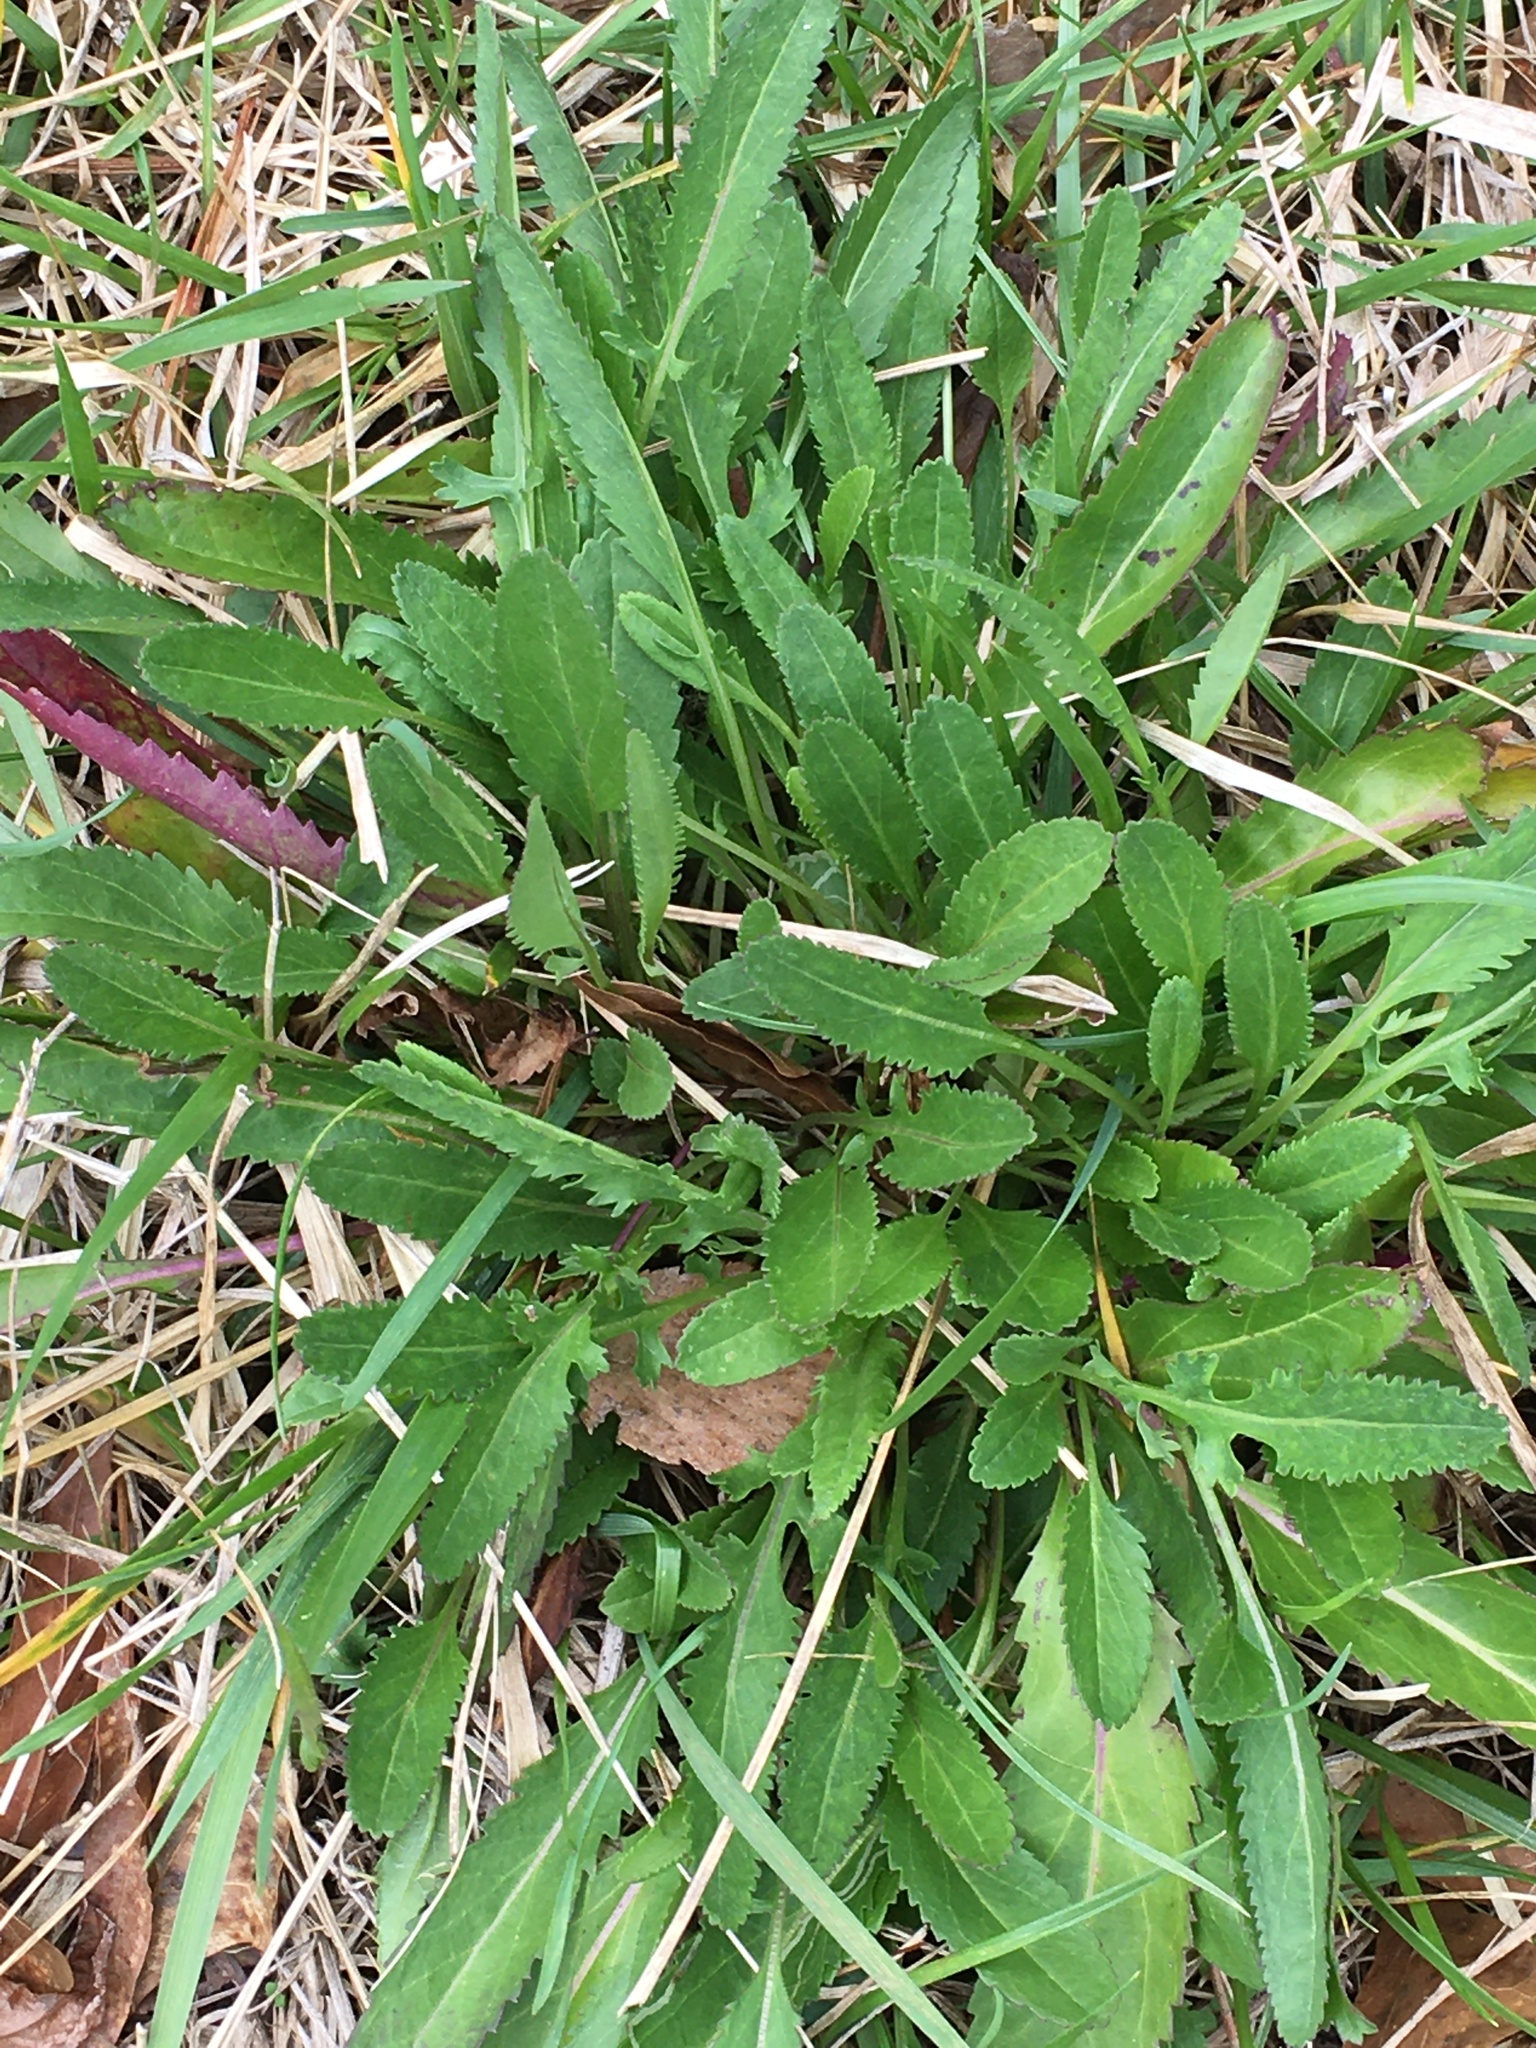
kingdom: Plantae
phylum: Tracheophyta
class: Magnoliopsida
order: Asterales
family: Asteraceae
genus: Packera
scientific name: Packera anonyma
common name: Small ragwort
